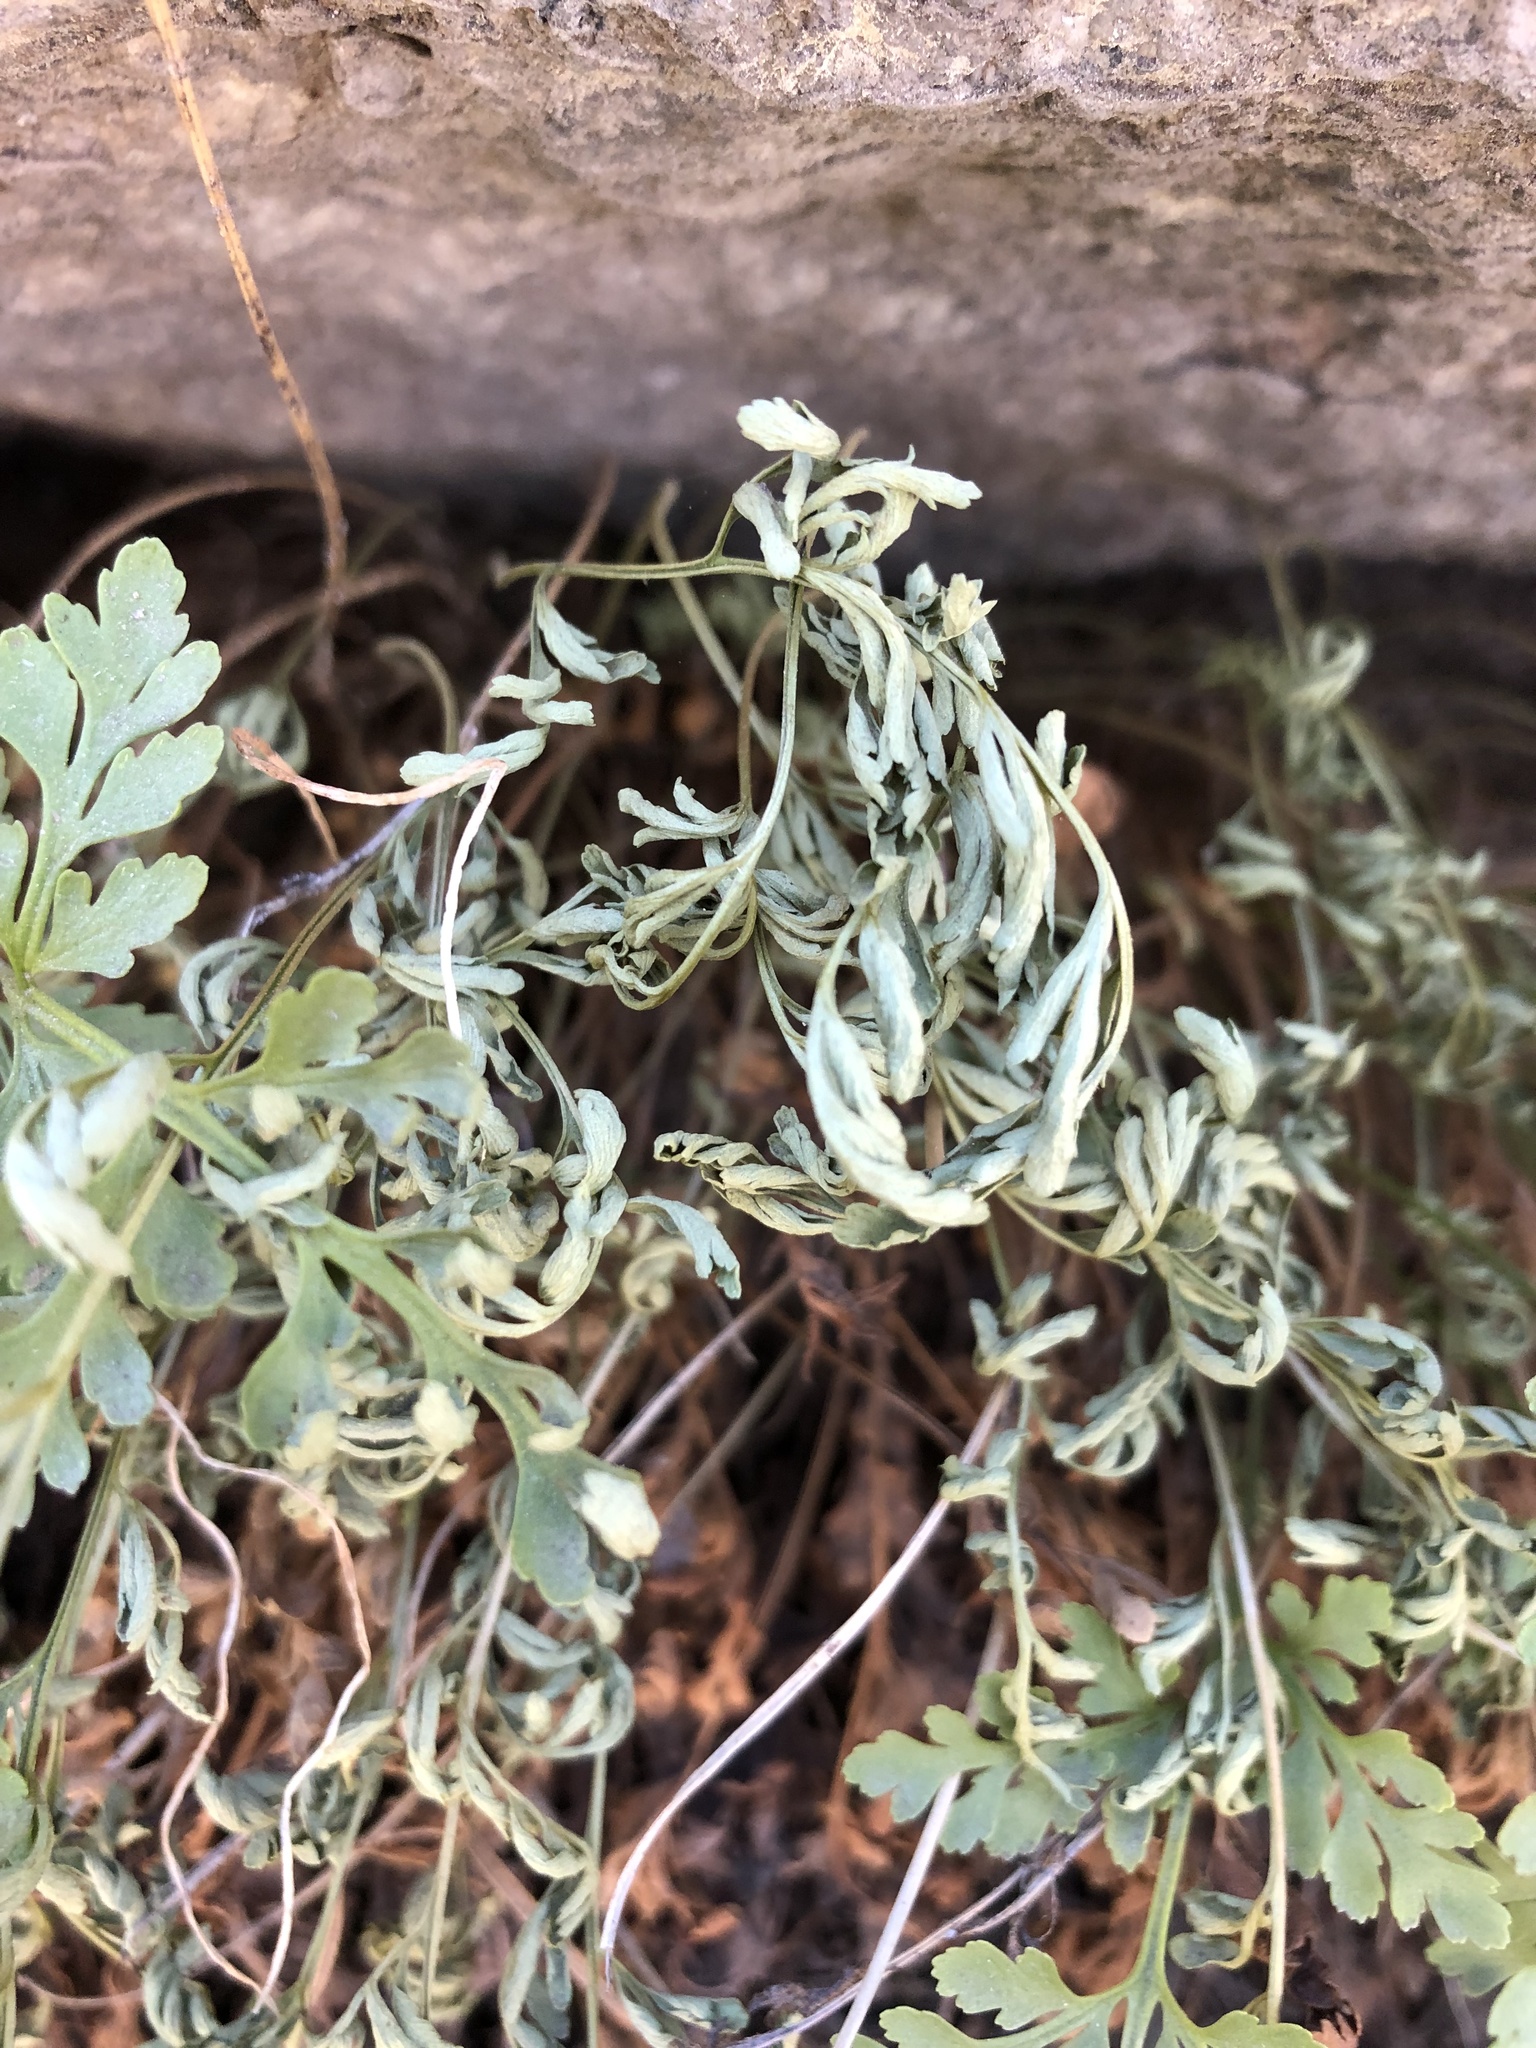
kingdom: Plantae
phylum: Tracheophyta
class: Polypodiopsida
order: Polypodiales
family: Pteridaceae
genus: Cryptogramma
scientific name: Cryptogramma acrostichoides
